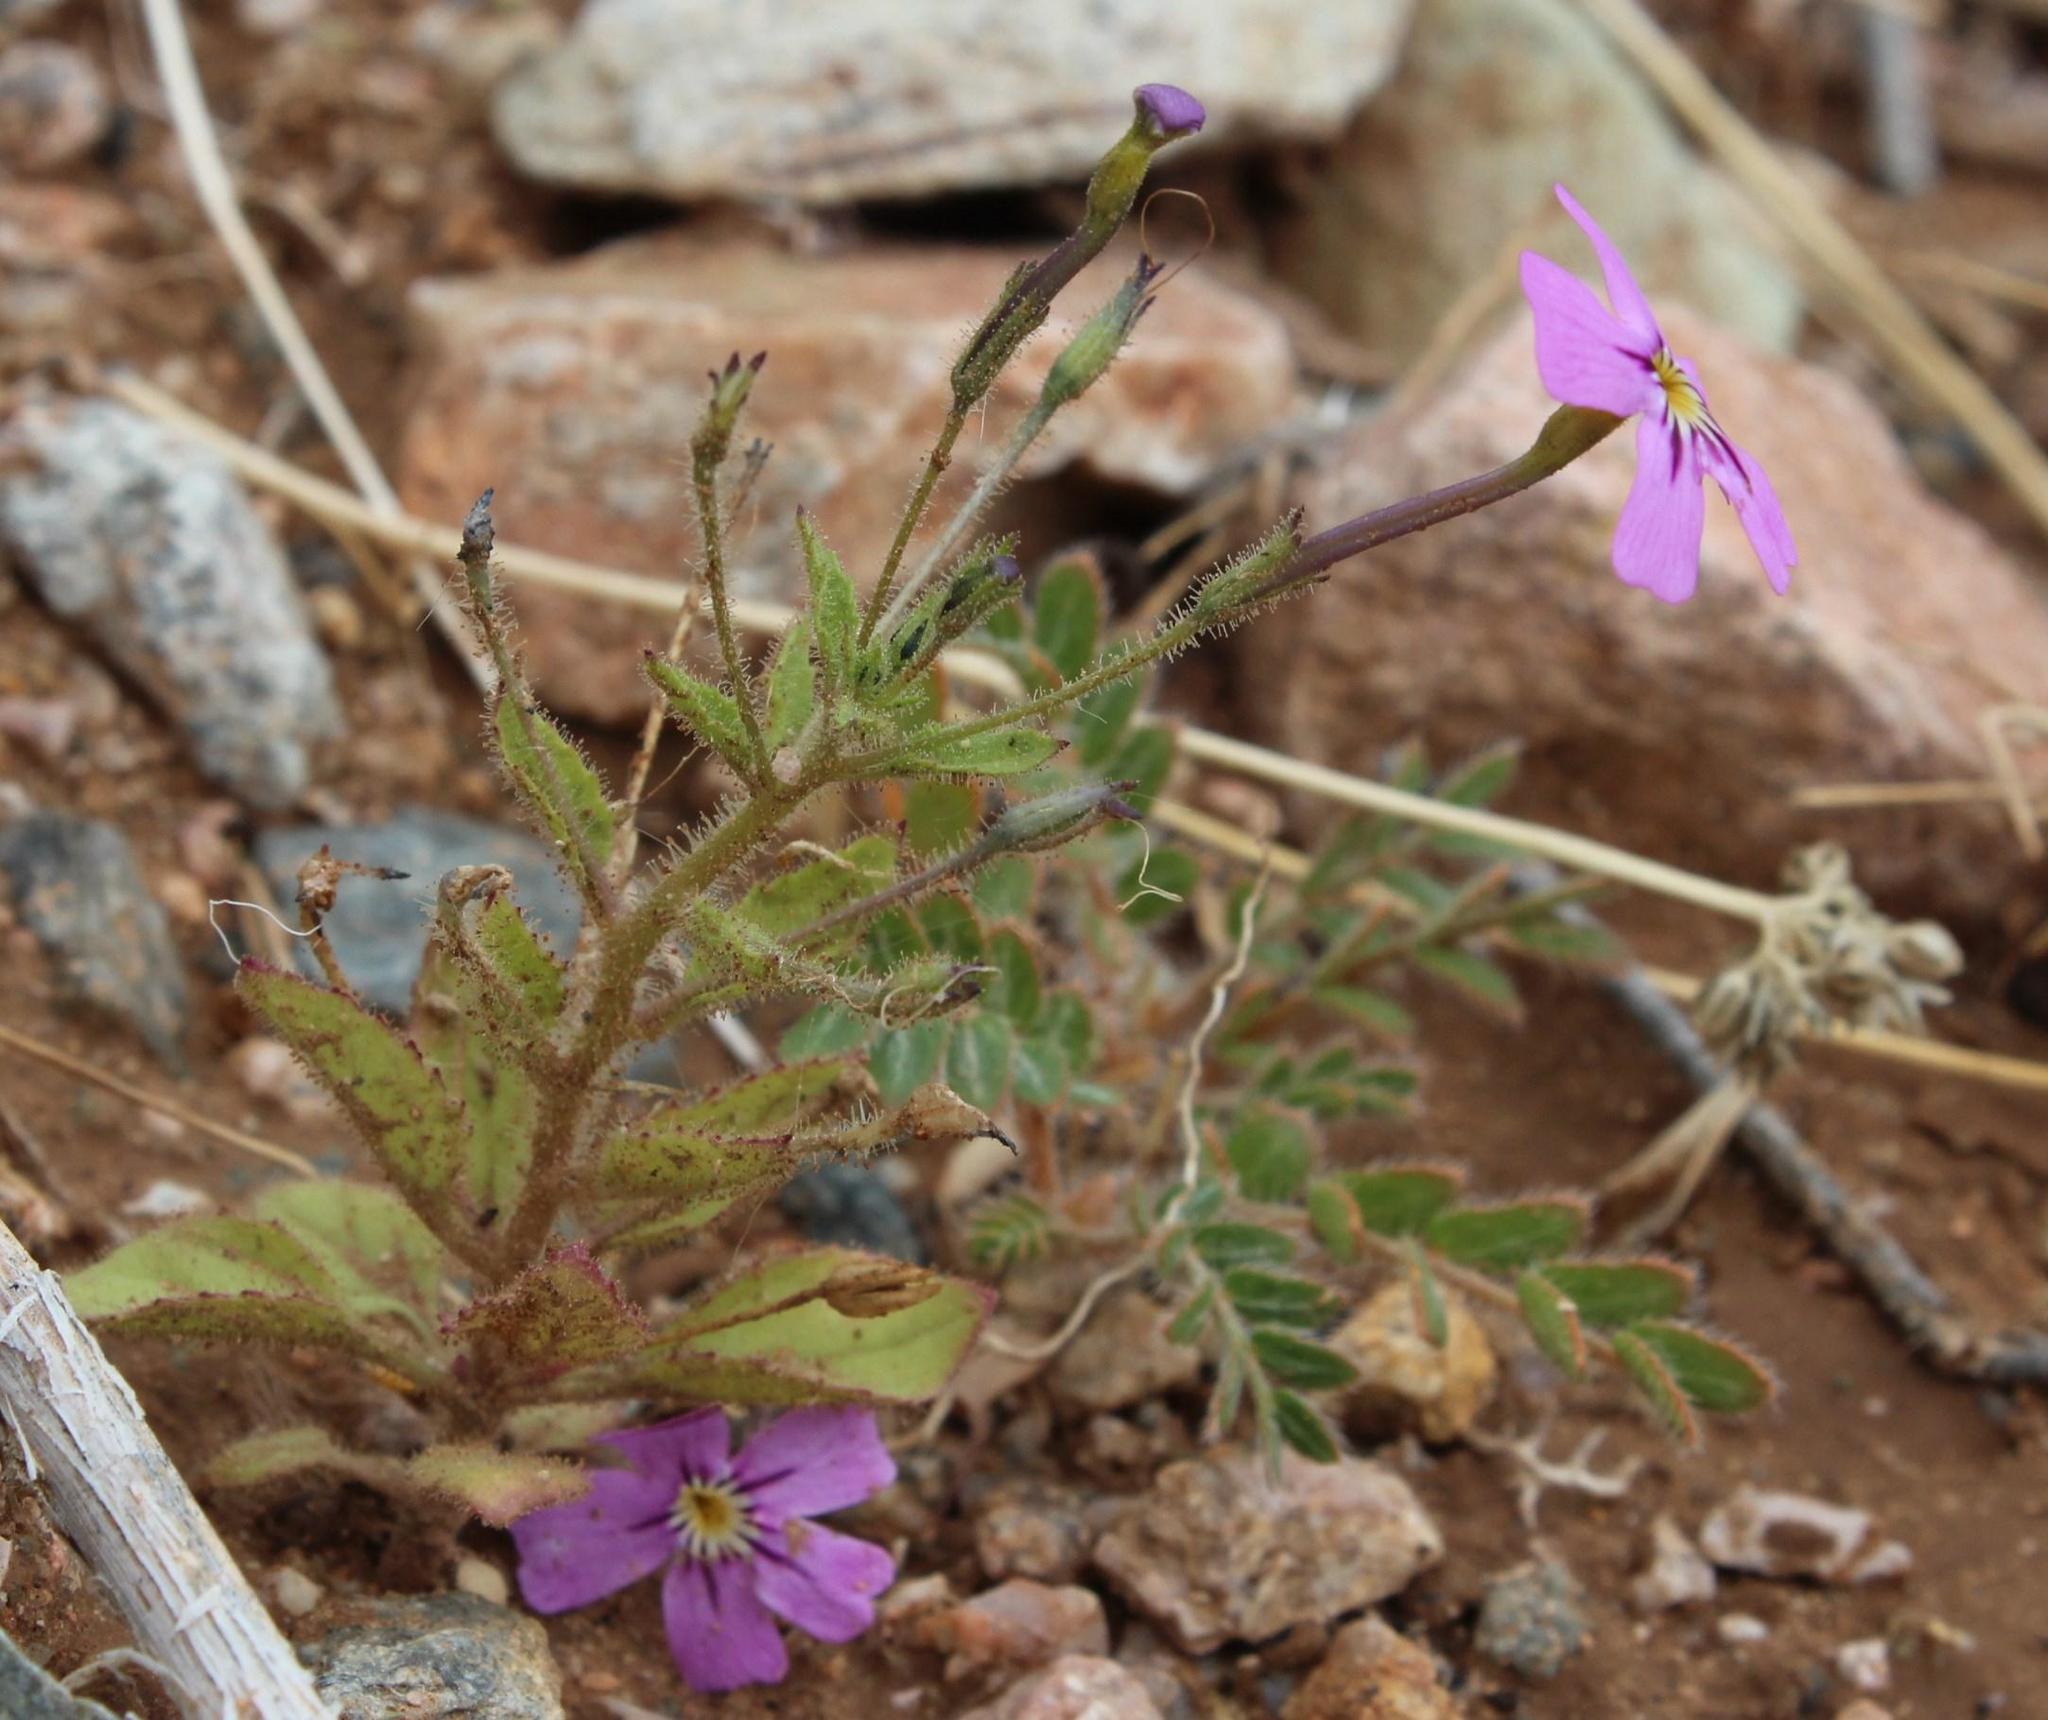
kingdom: Plantae
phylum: Tracheophyta
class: Magnoliopsida
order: Lamiales
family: Scrophulariaceae
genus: Jamesbrittenia
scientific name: Jamesbrittenia glutinosa
